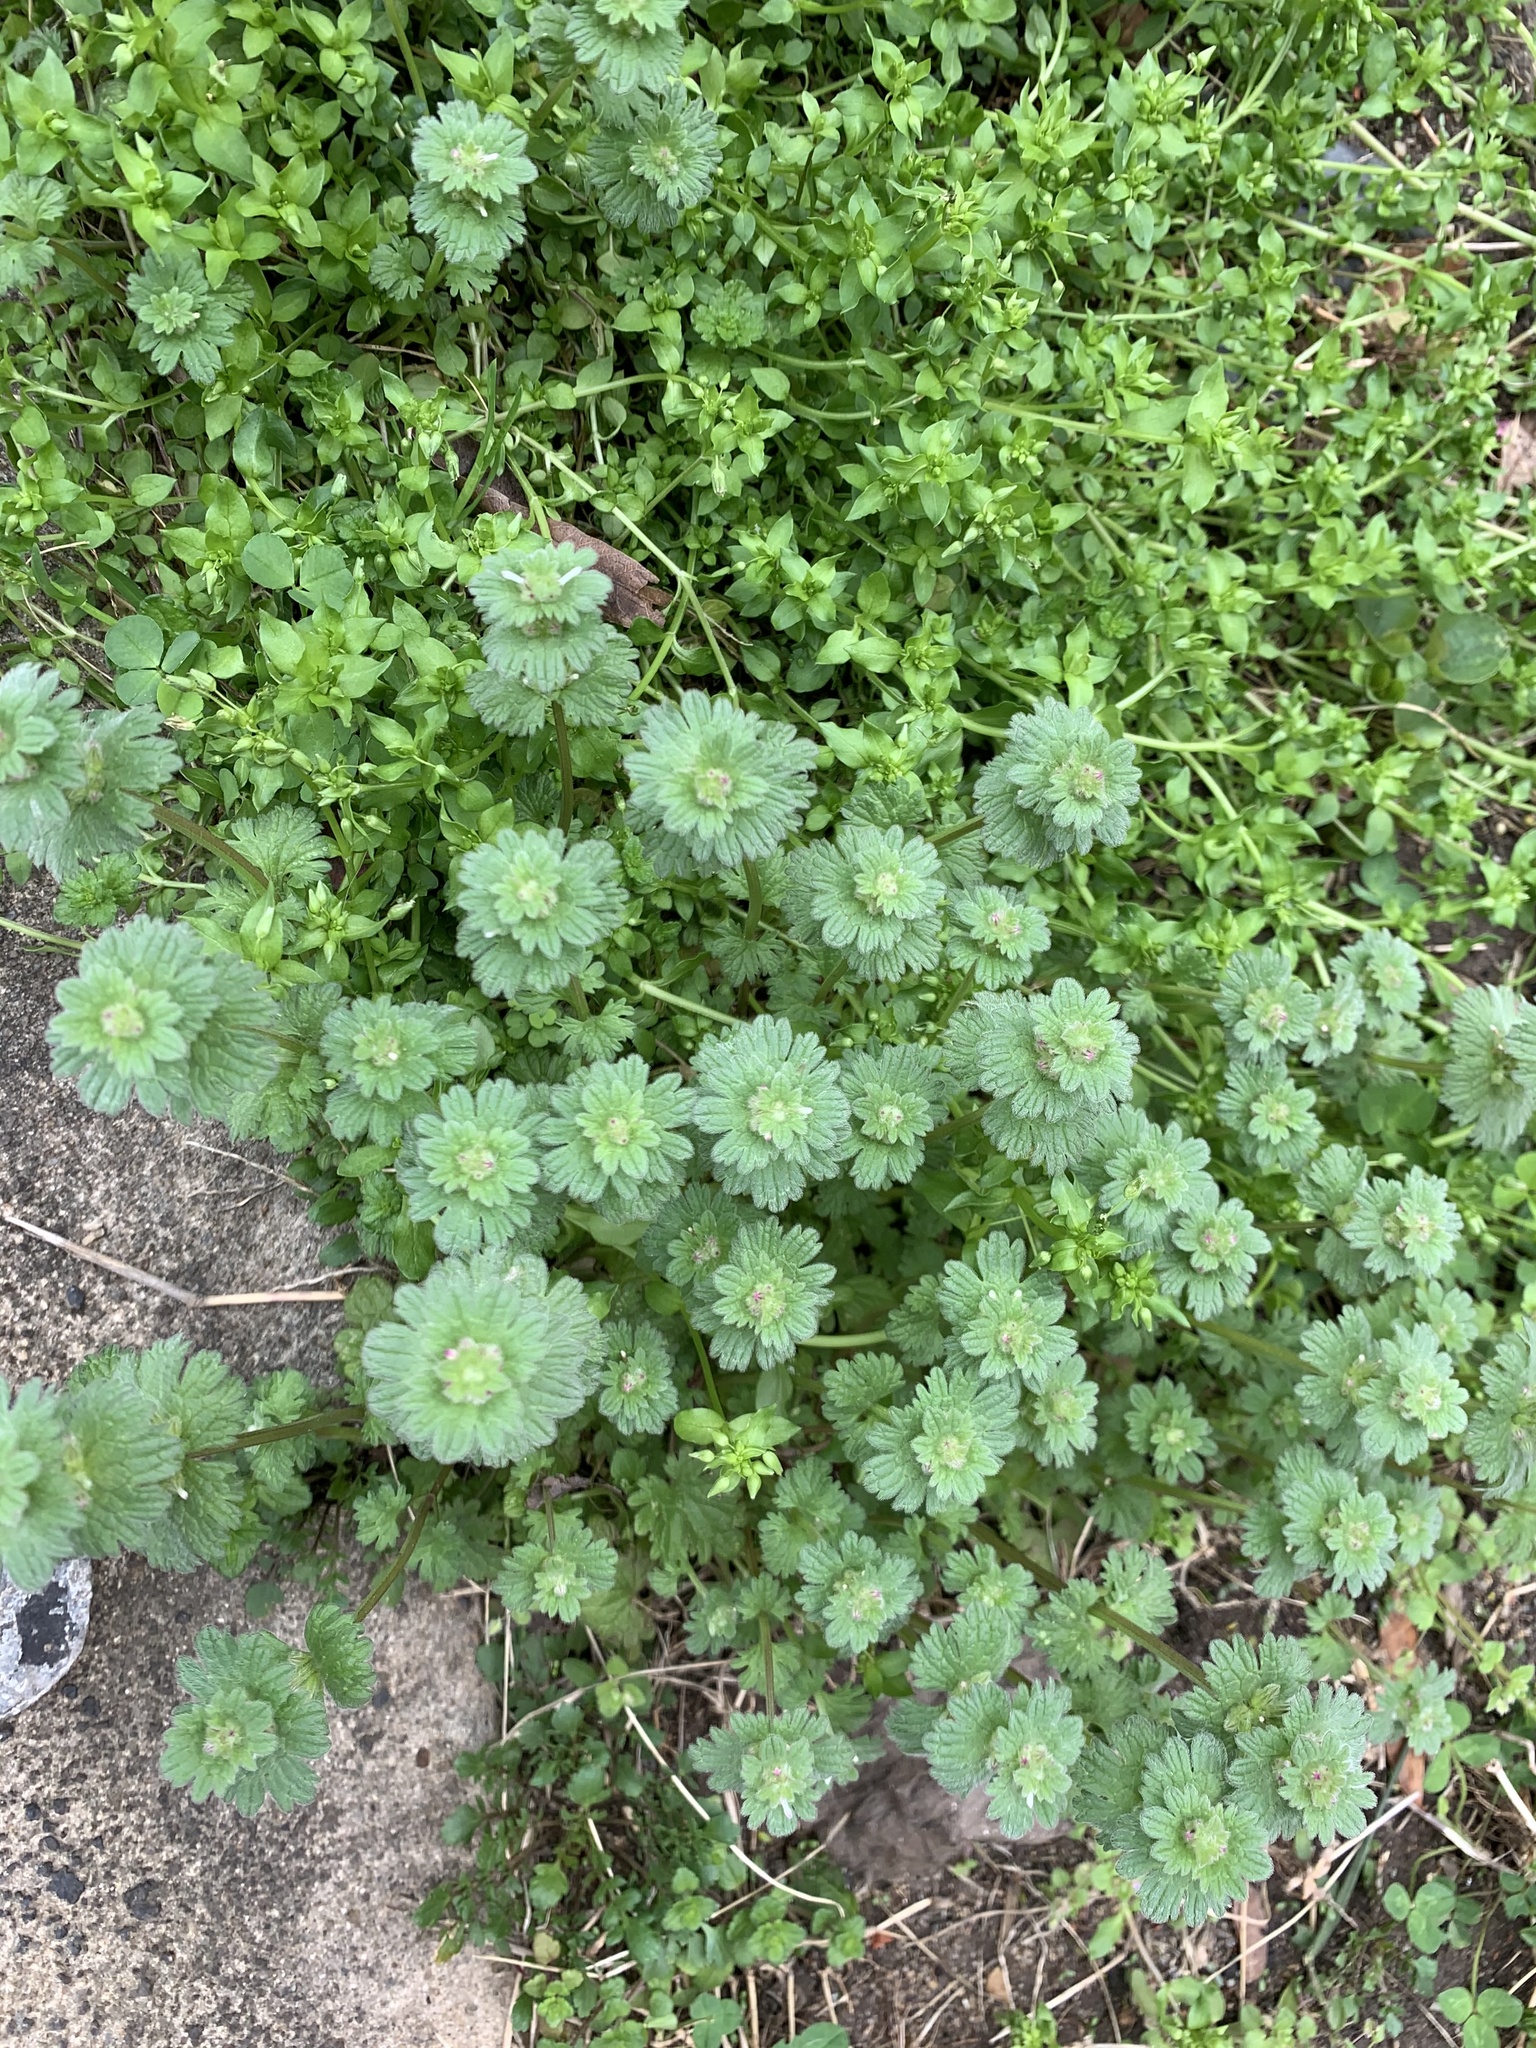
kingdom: Plantae
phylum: Tracheophyta
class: Magnoliopsida
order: Lamiales
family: Lamiaceae
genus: Lamium
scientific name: Lamium amplexicaule
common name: Henbit dead-nettle
